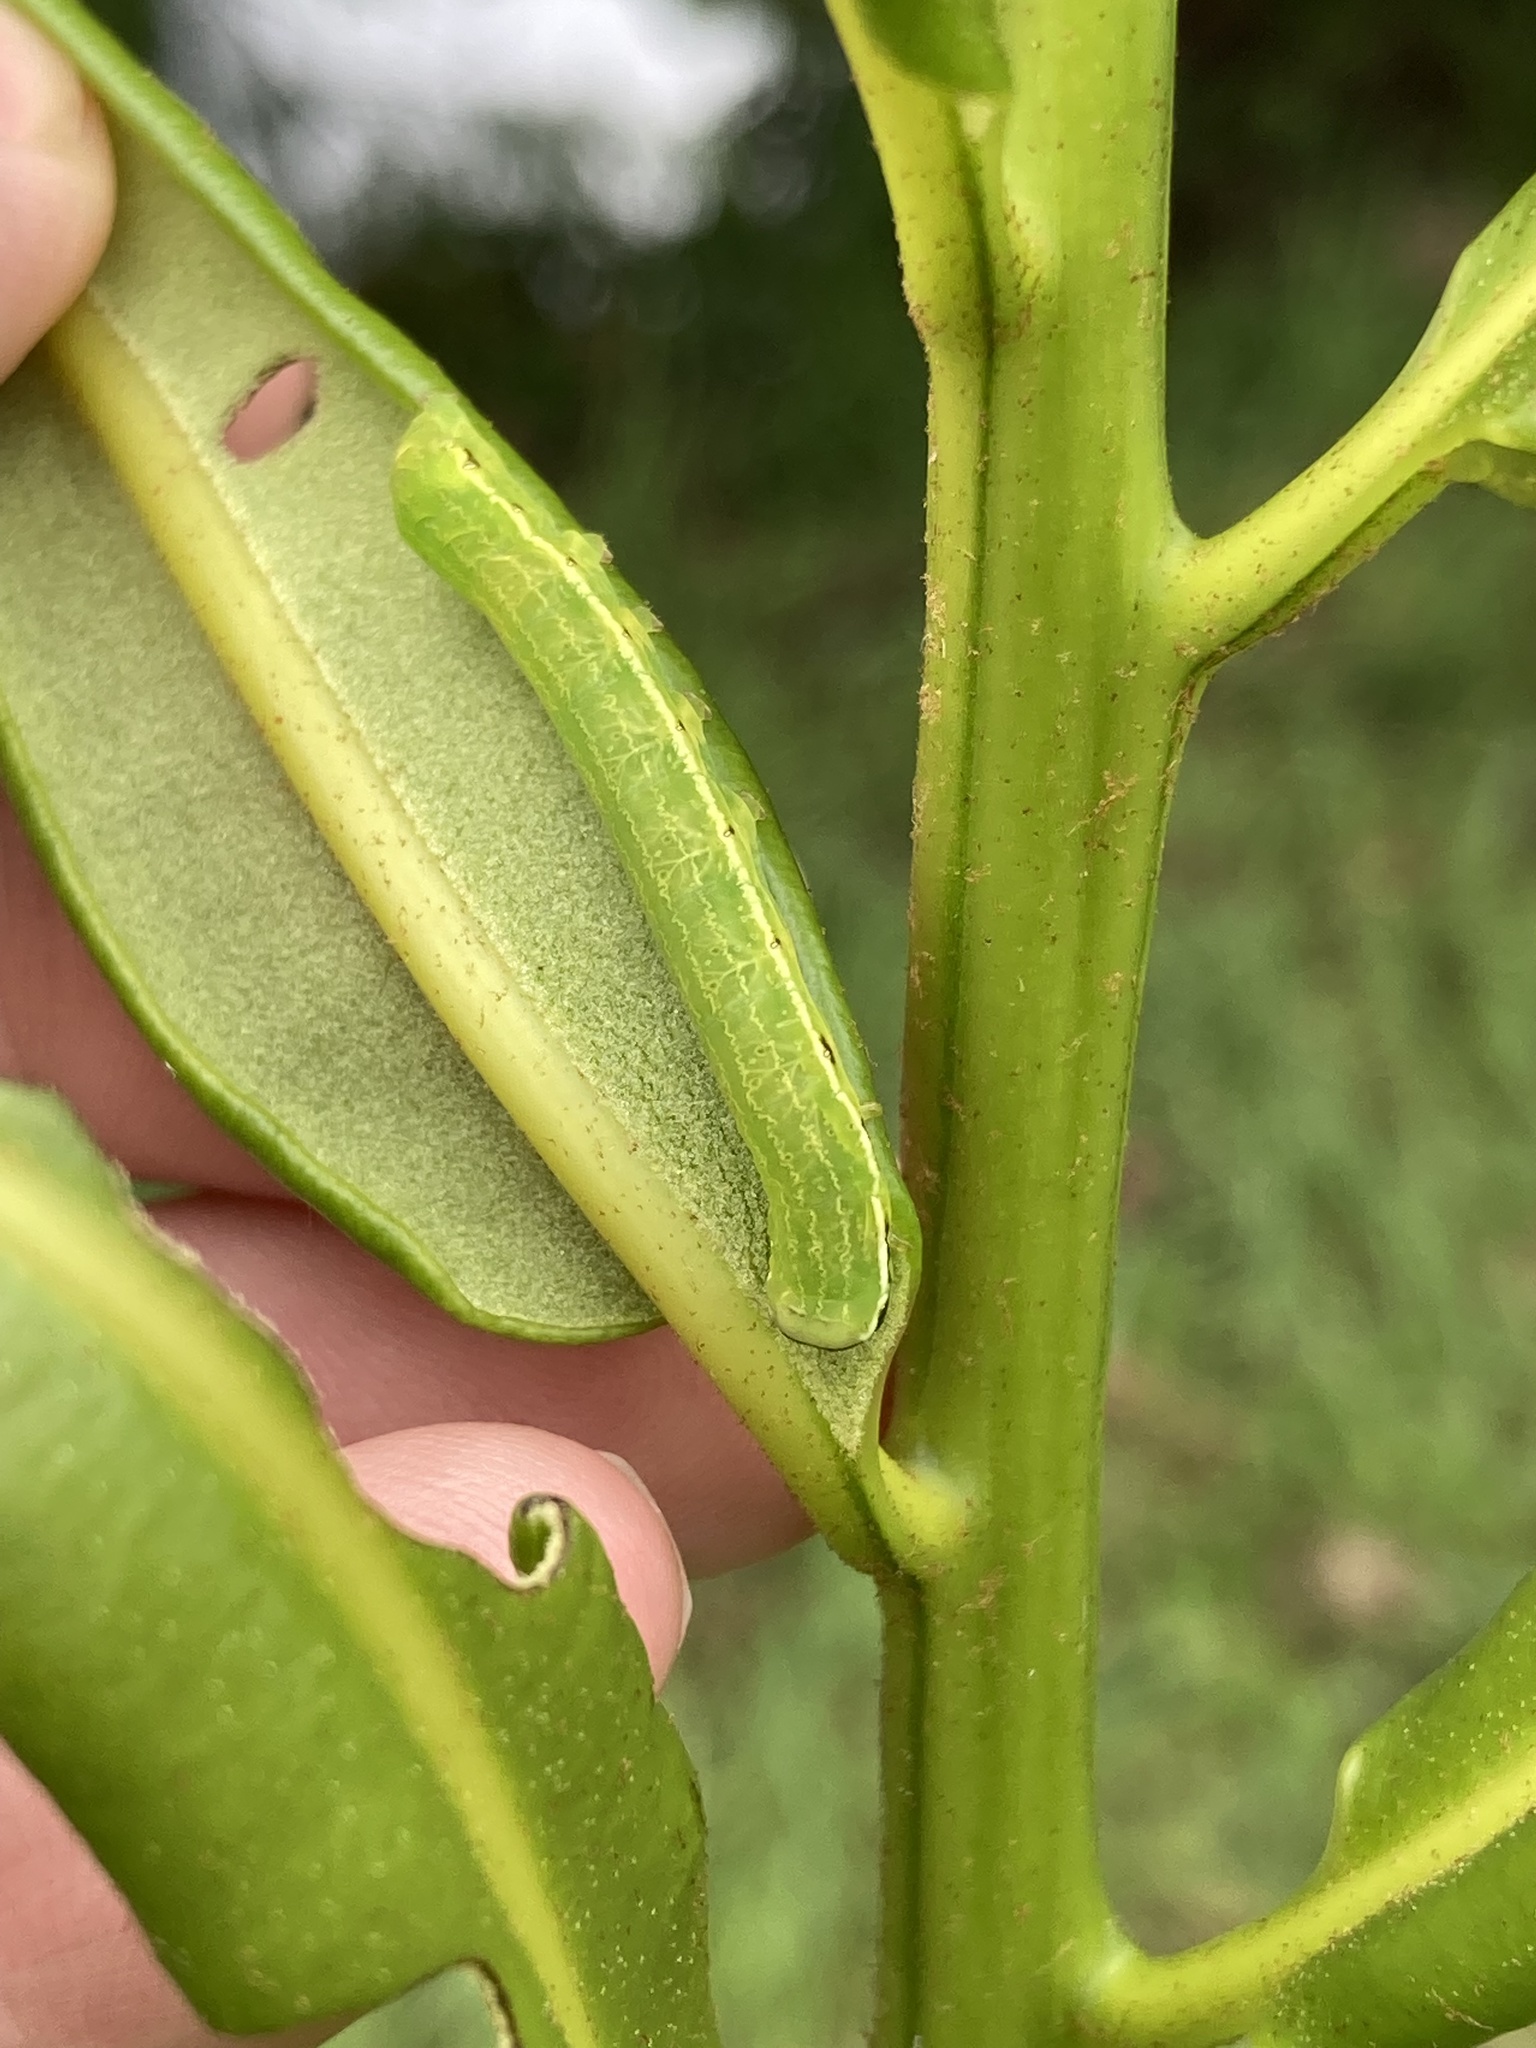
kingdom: Animalia
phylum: Arthropoda
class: Insecta
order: Lepidoptera
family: Noctuidae
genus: Callopistria
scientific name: Callopistria floridensis
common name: Florida fern moth
